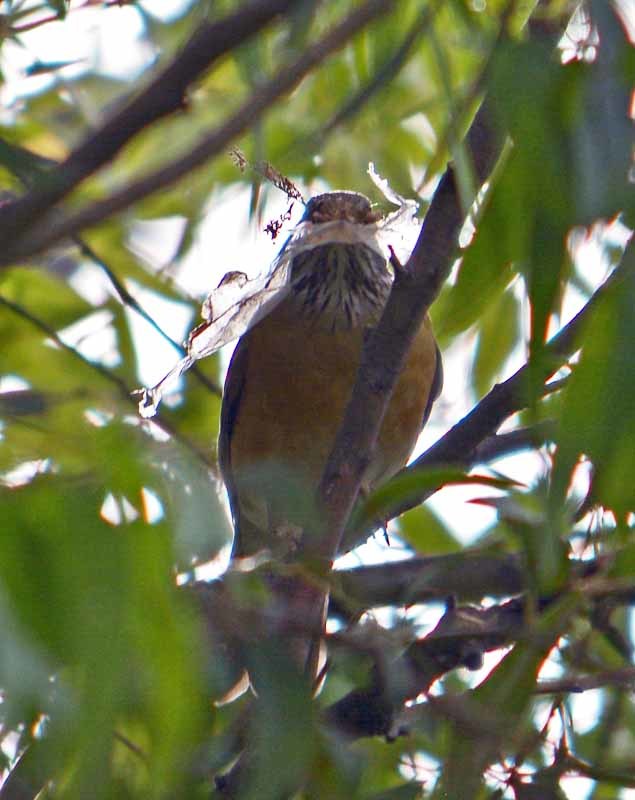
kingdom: Animalia
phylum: Chordata
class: Aves
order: Passeriformes
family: Turdidae
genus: Turdus
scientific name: Turdus rufopalliatus
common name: Rufous-backed robin
